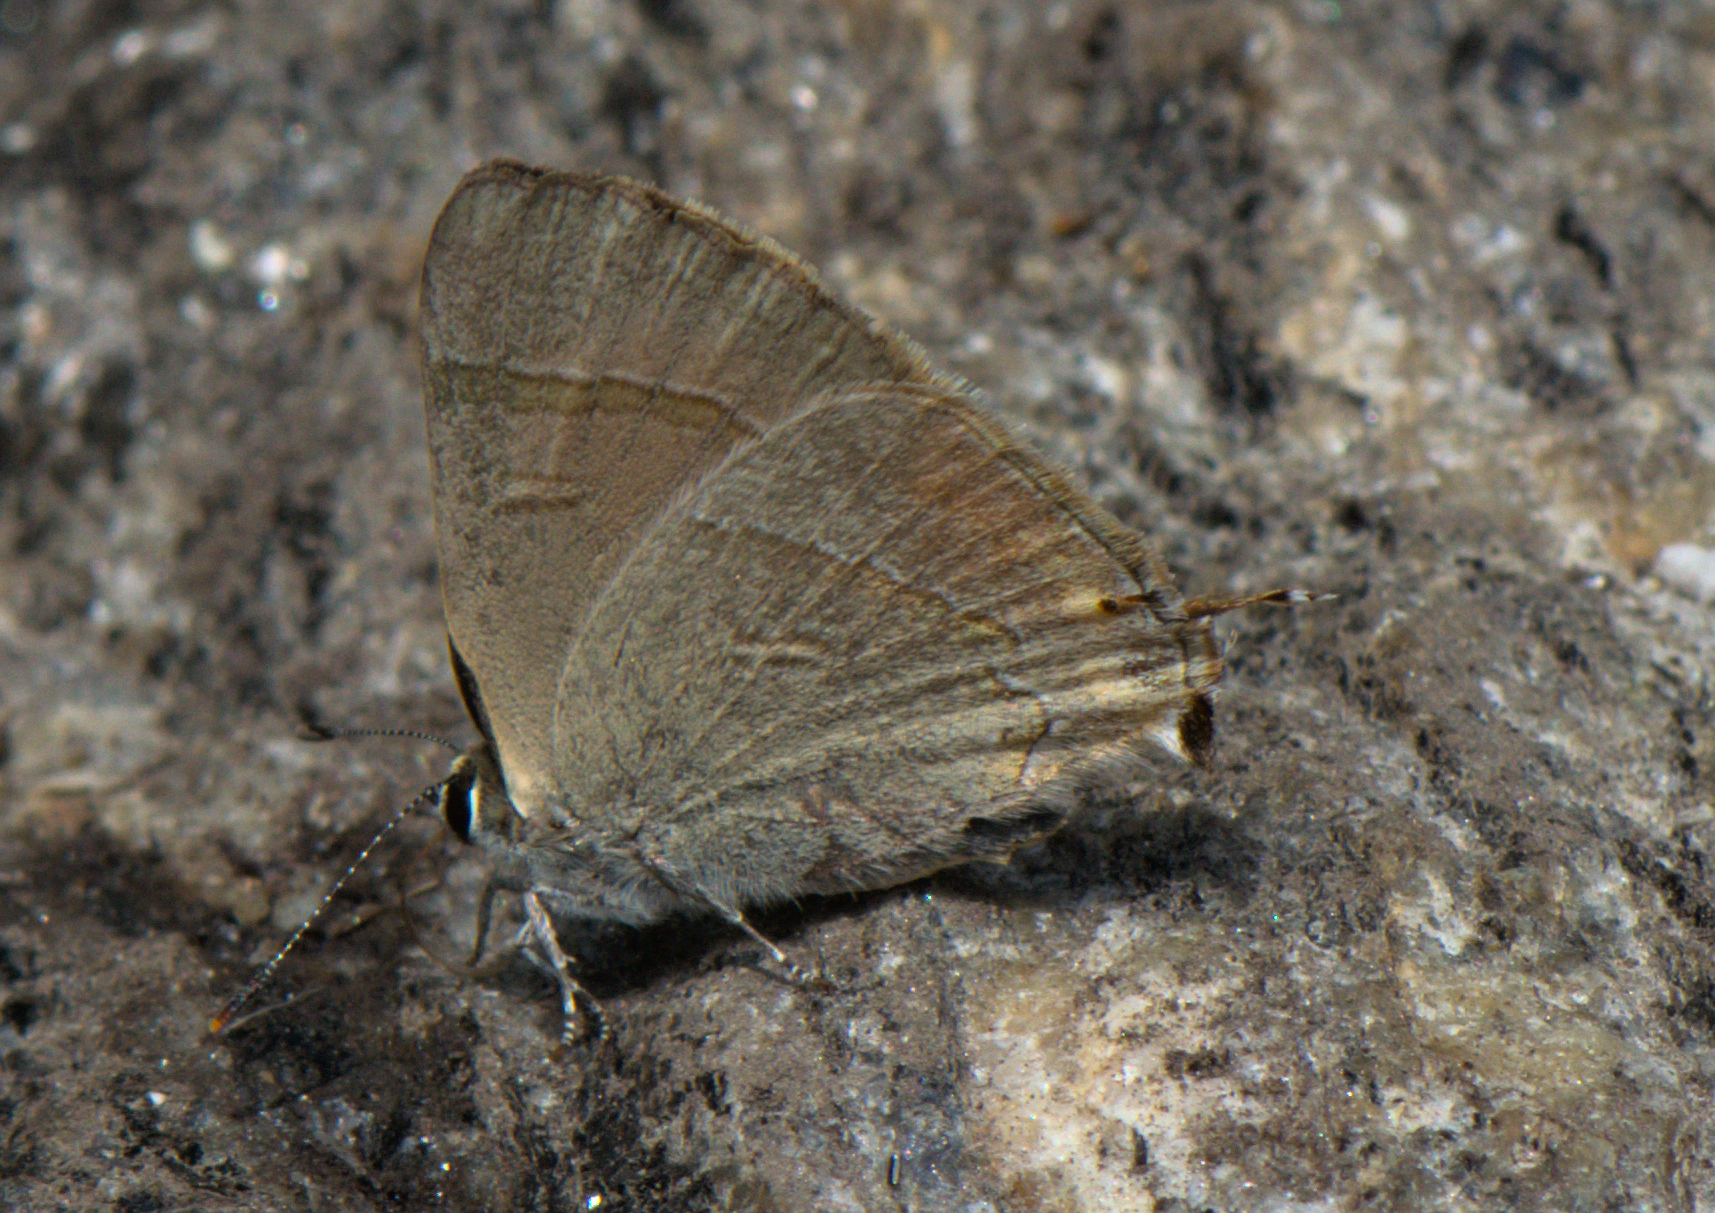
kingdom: Animalia
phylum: Arthropoda
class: Insecta
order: Lepidoptera
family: Lycaenidae
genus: Rapala
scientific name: Rapala selira
